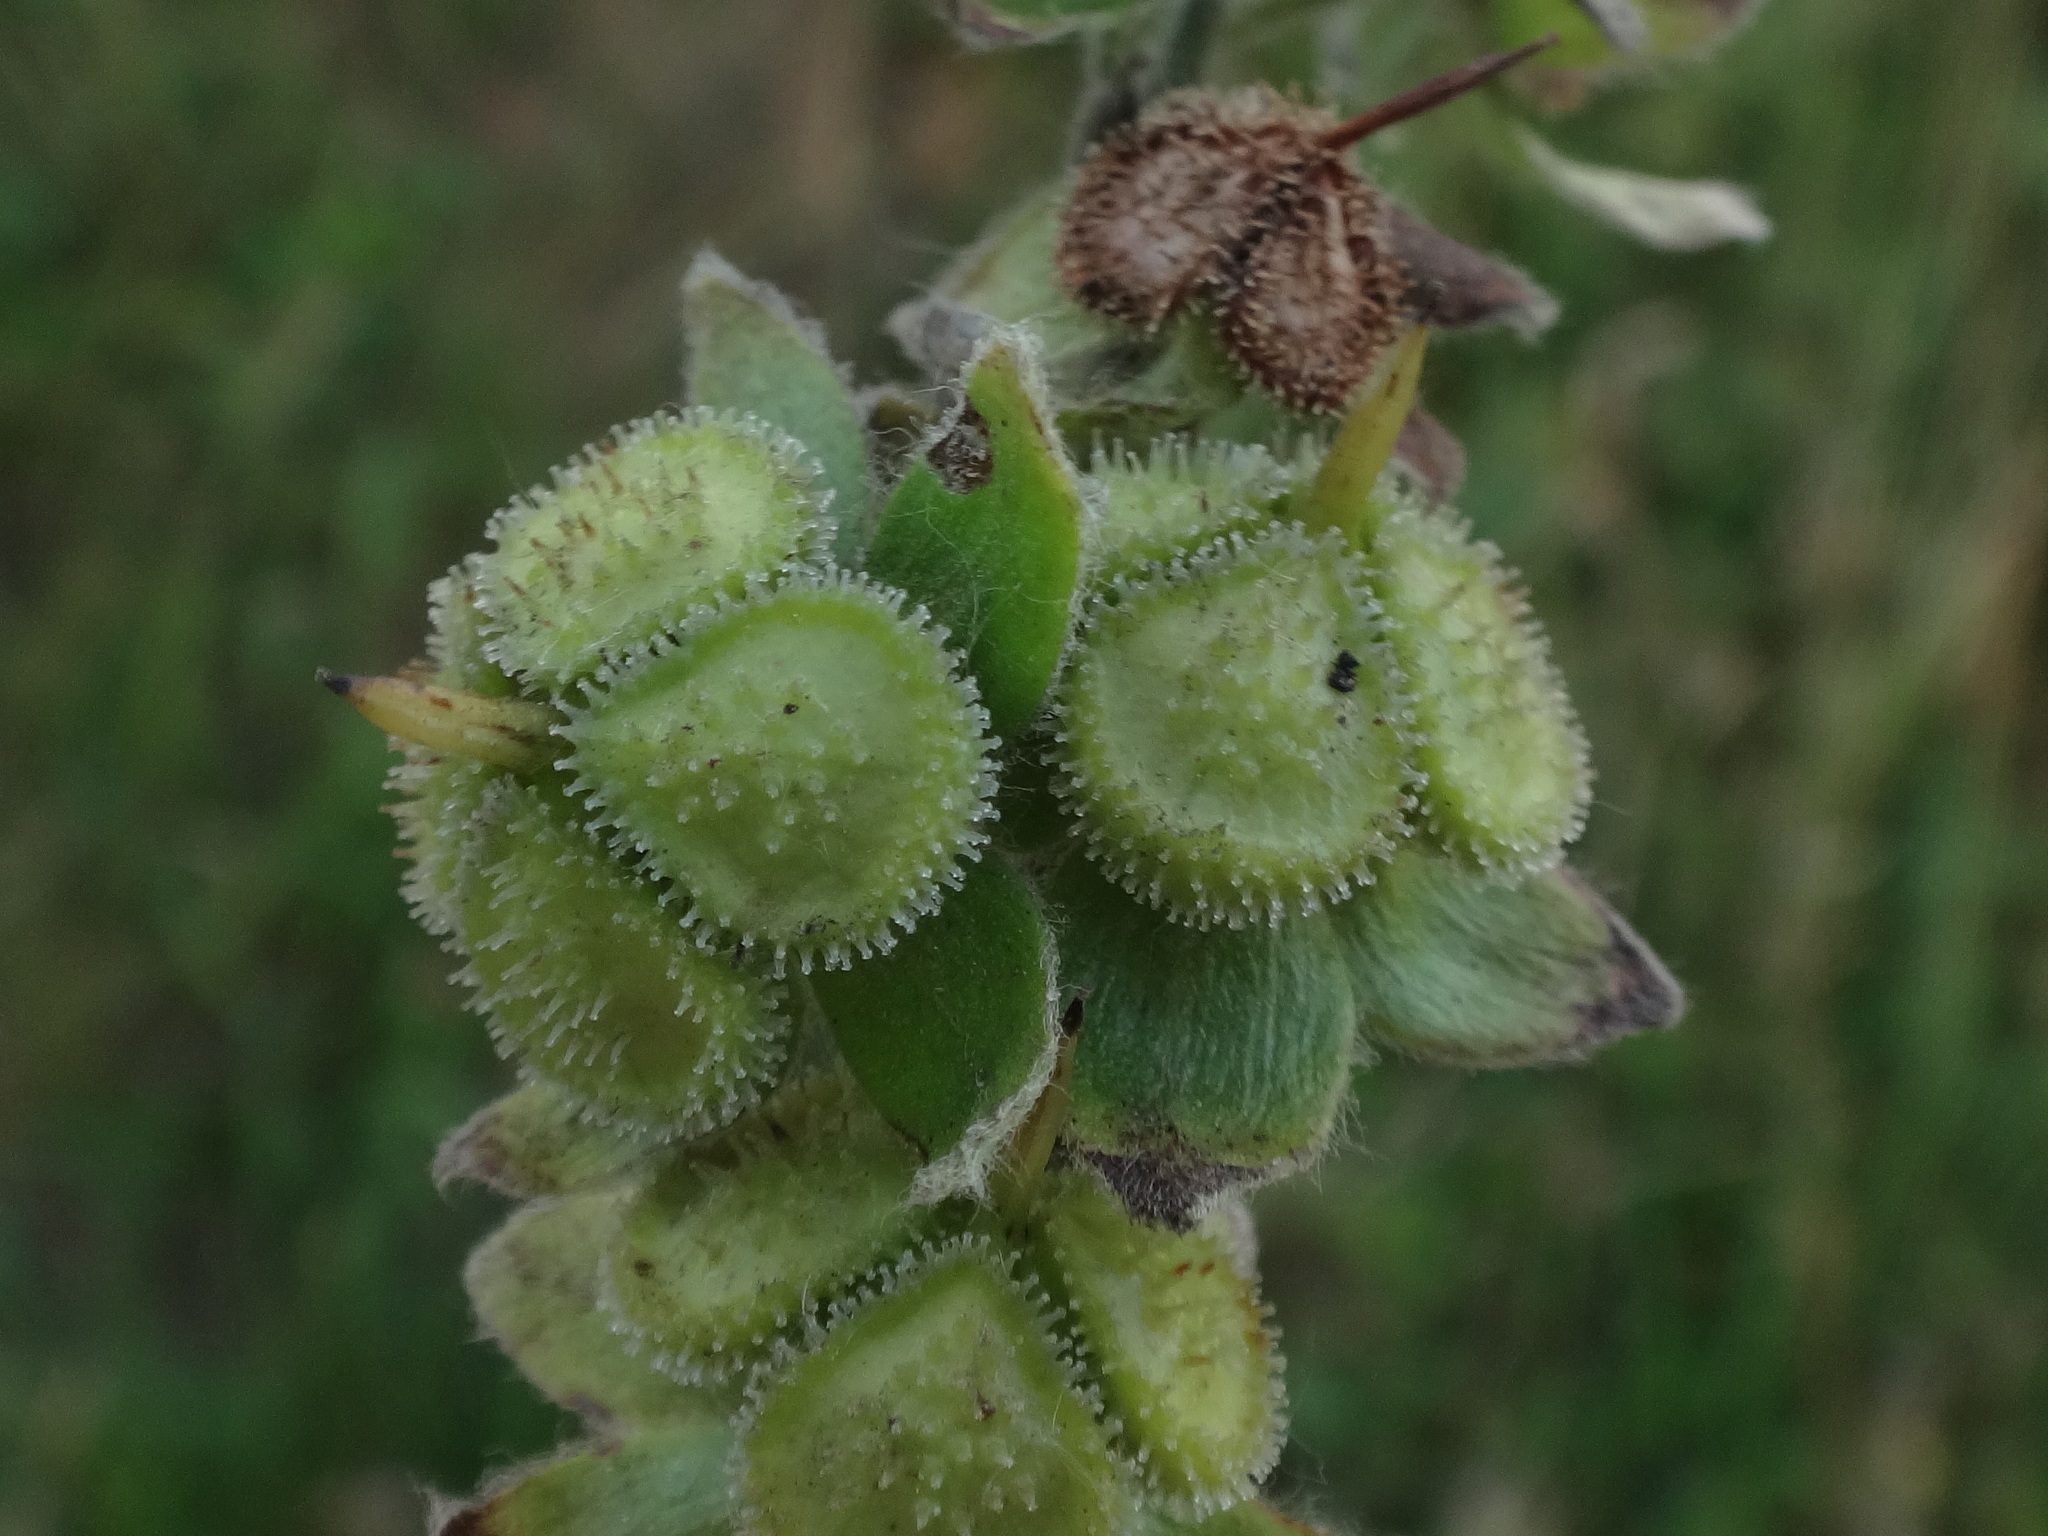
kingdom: Plantae
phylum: Tracheophyta
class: Magnoliopsida
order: Boraginales
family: Boraginaceae
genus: Cynoglossum
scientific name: Cynoglossum officinale
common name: Hound's-tongue
